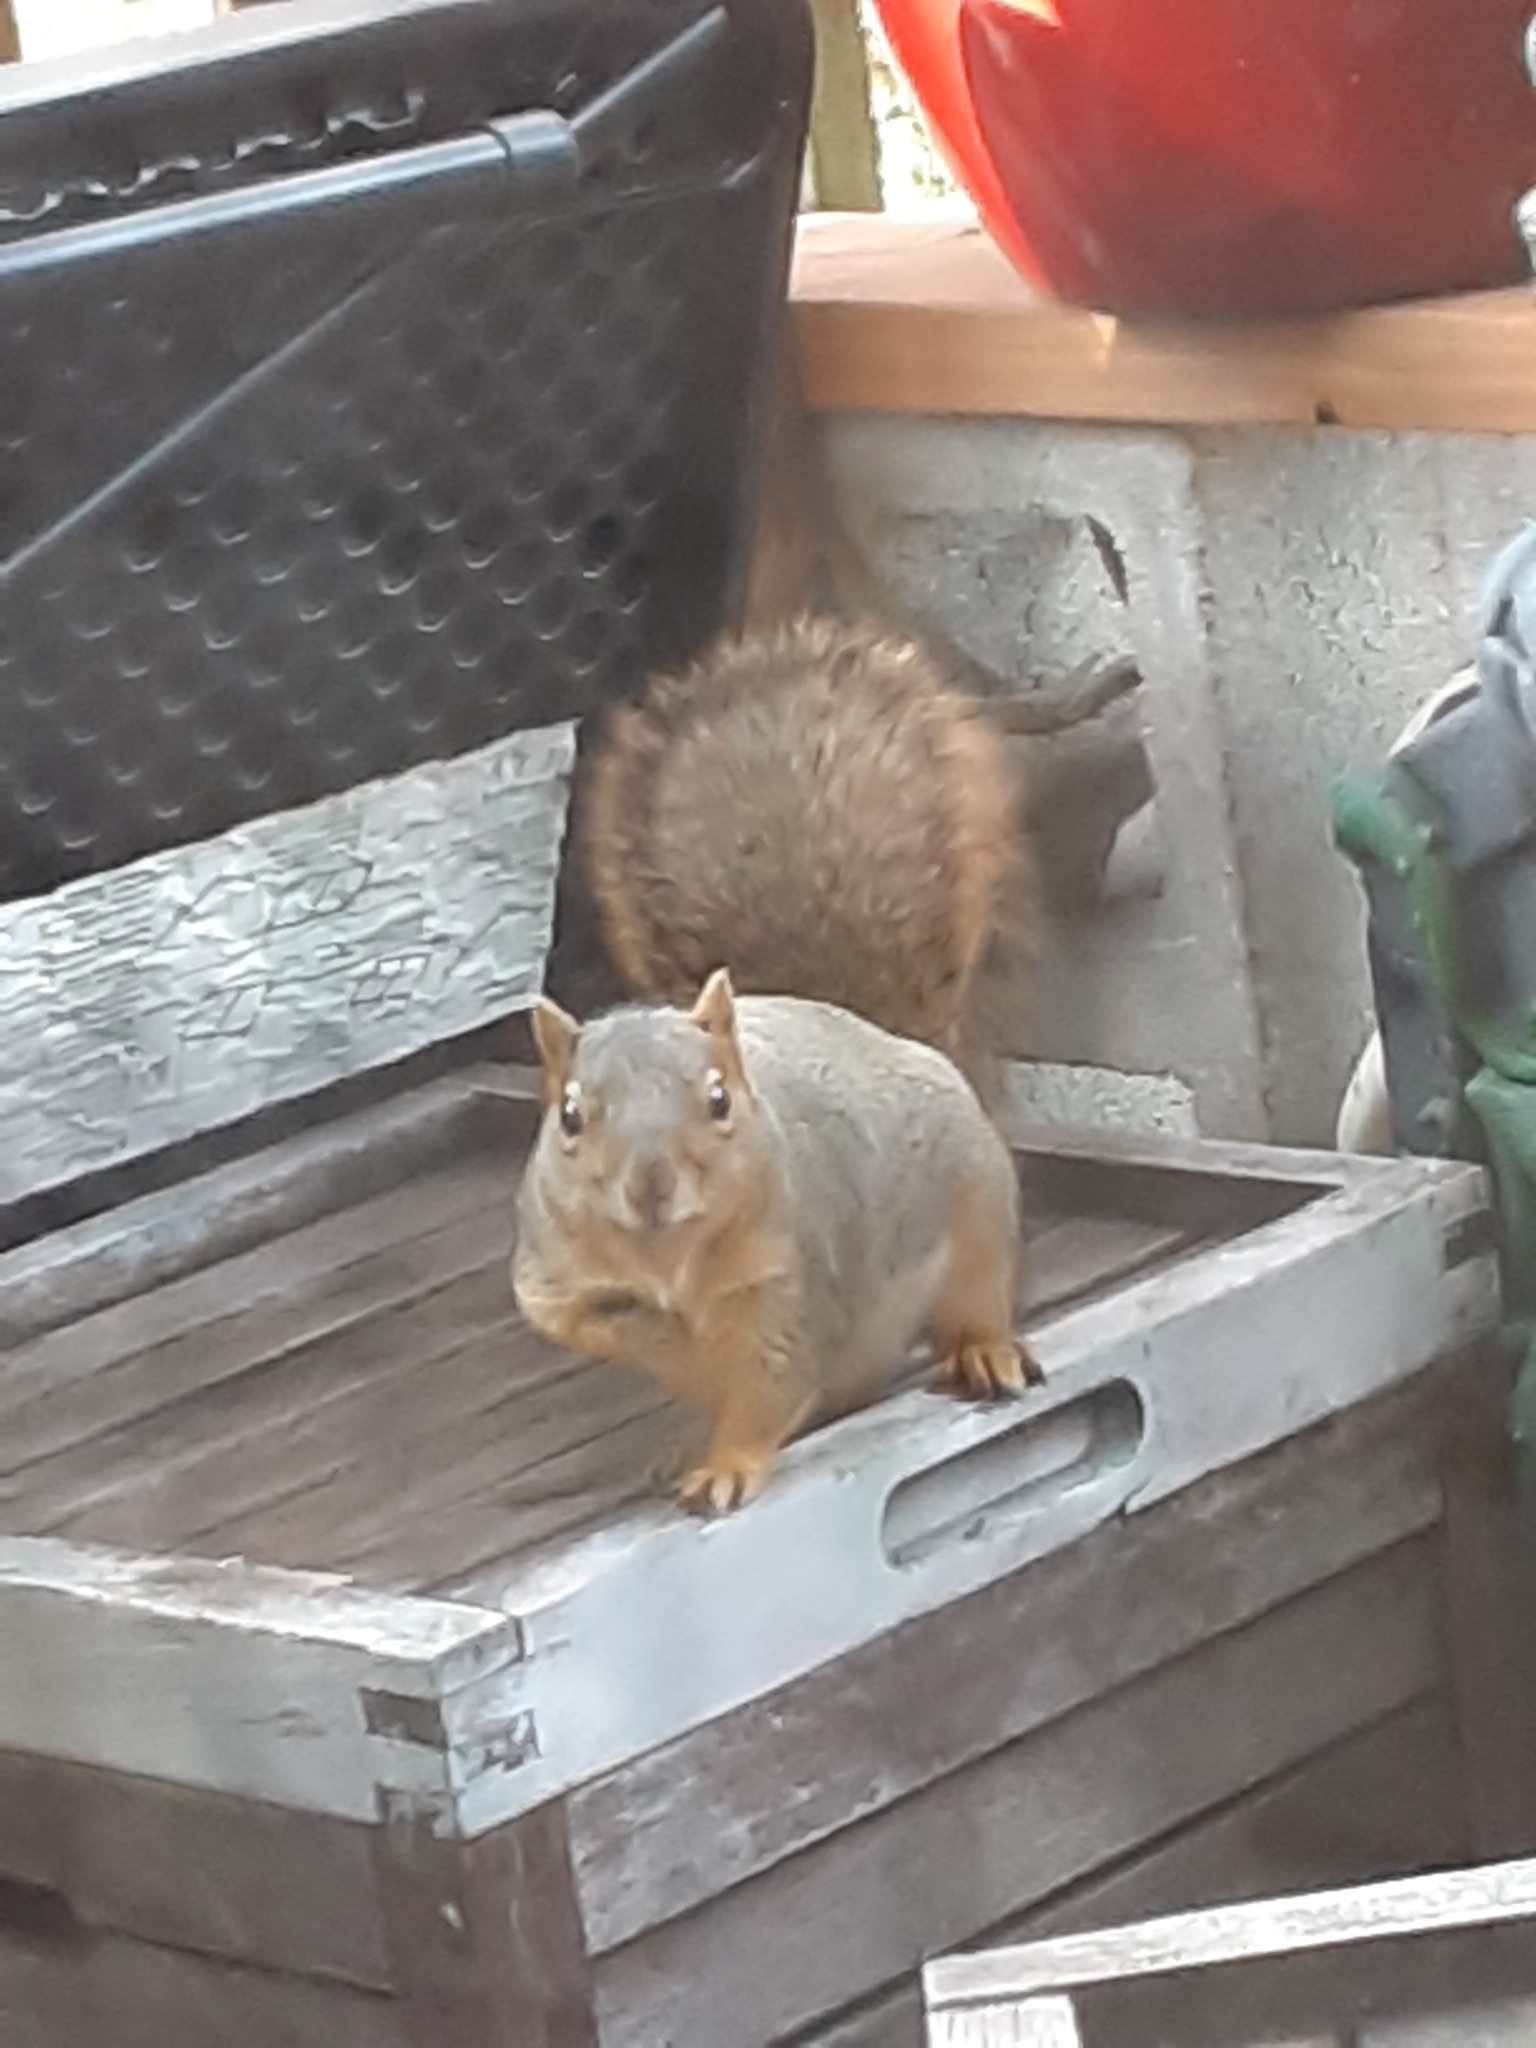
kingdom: Animalia
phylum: Chordata
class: Mammalia
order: Rodentia
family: Sciuridae
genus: Sciurus
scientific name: Sciurus niger
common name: Fox squirrel
